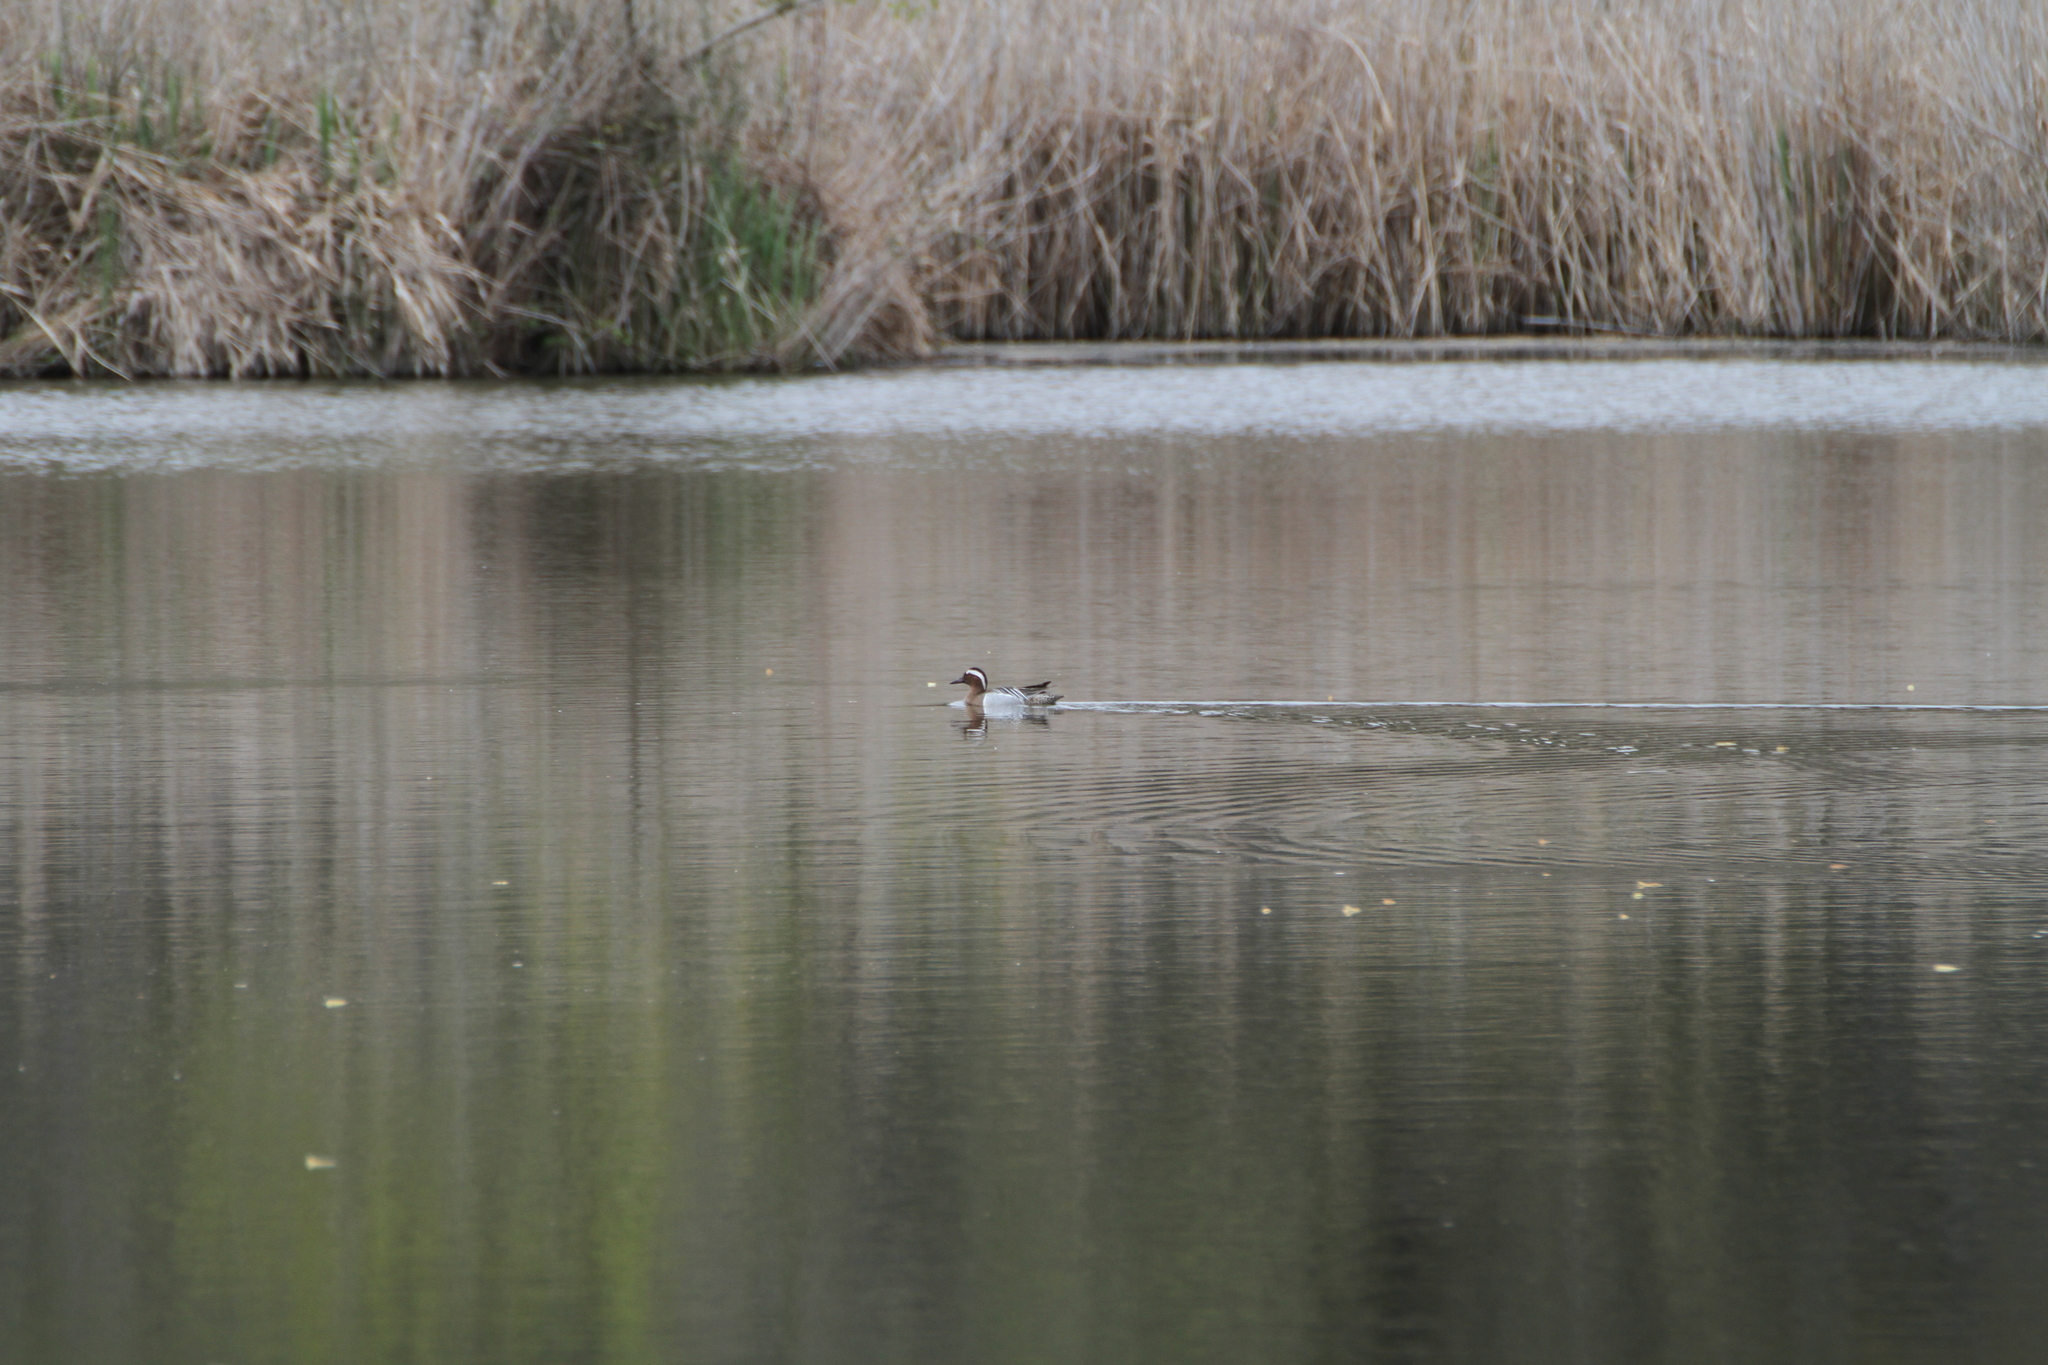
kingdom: Animalia
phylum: Chordata
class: Aves
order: Anseriformes
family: Anatidae
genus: Spatula
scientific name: Spatula querquedula
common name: Garganey
